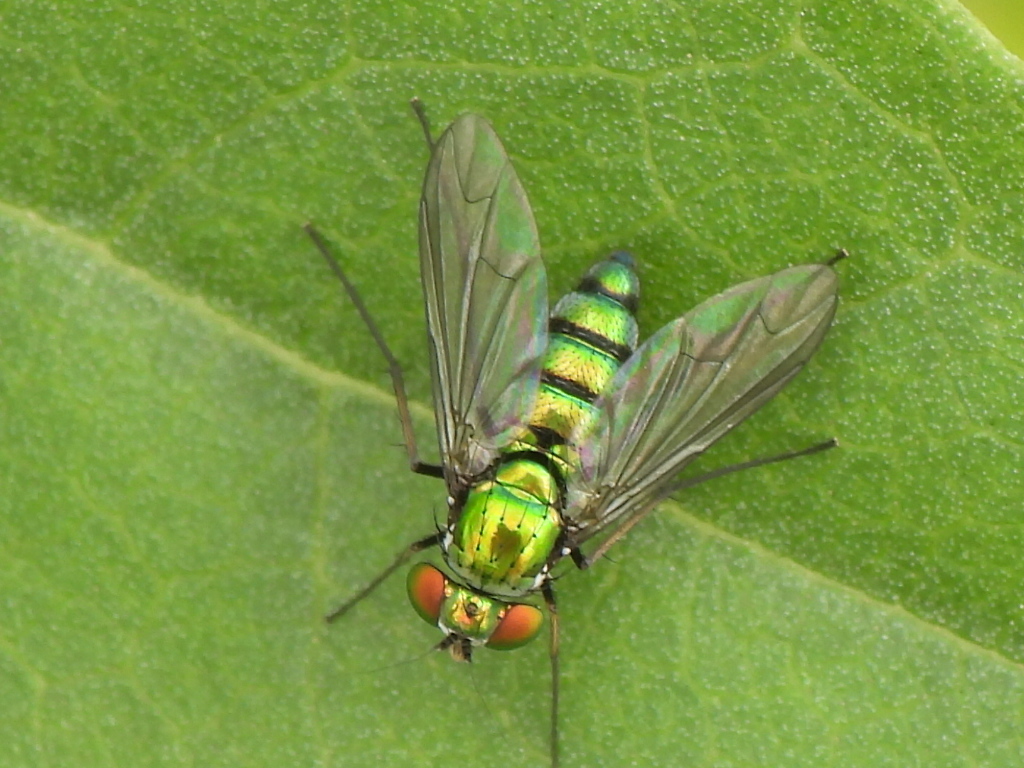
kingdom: Animalia
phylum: Arthropoda
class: Insecta
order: Diptera
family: Dolichopodidae
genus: Condylostylus
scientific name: Condylostylus longicornis
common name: Long-legged fly
